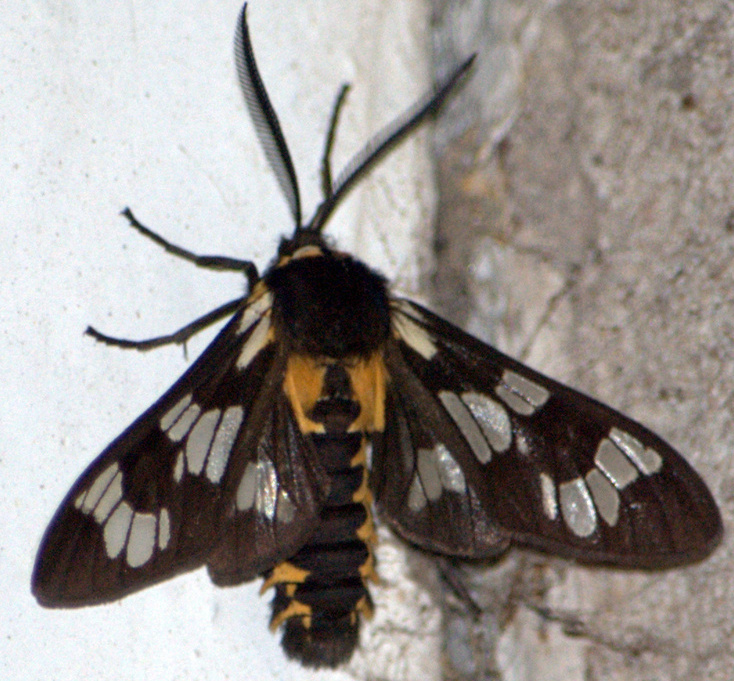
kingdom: Animalia
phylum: Arthropoda
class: Insecta
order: Lepidoptera
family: Erebidae
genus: Eurata
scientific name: Eurata
